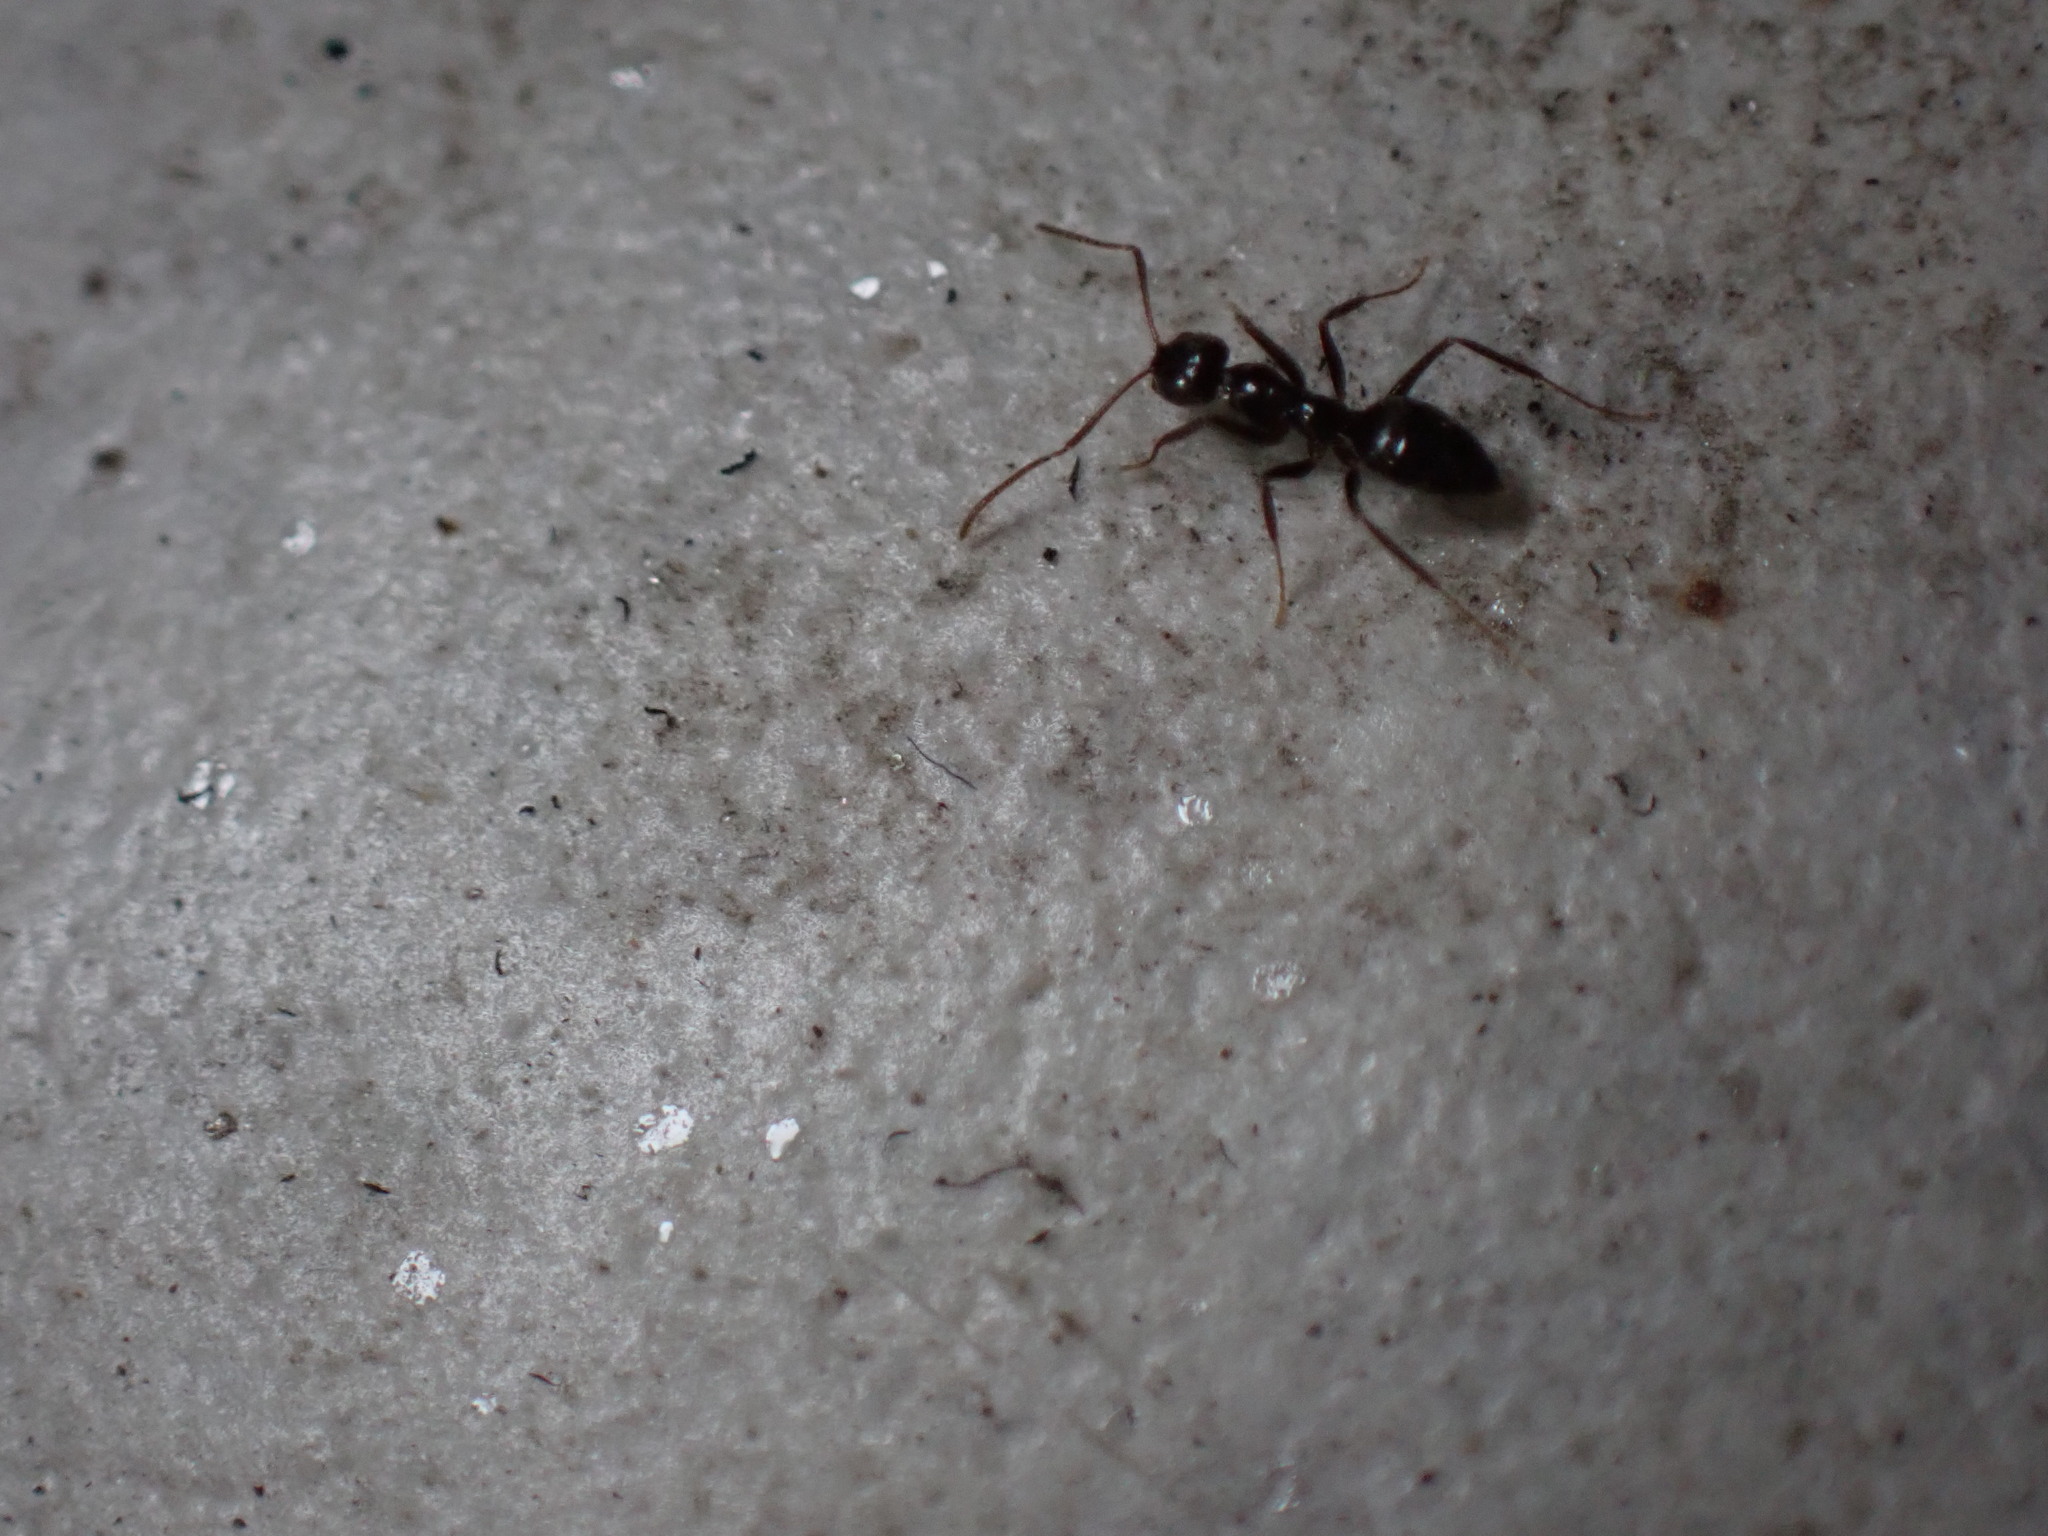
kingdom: Animalia
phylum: Arthropoda
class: Insecta
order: Hymenoptera
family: Formicidae
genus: Nylanderia
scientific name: Nylanderia amia
